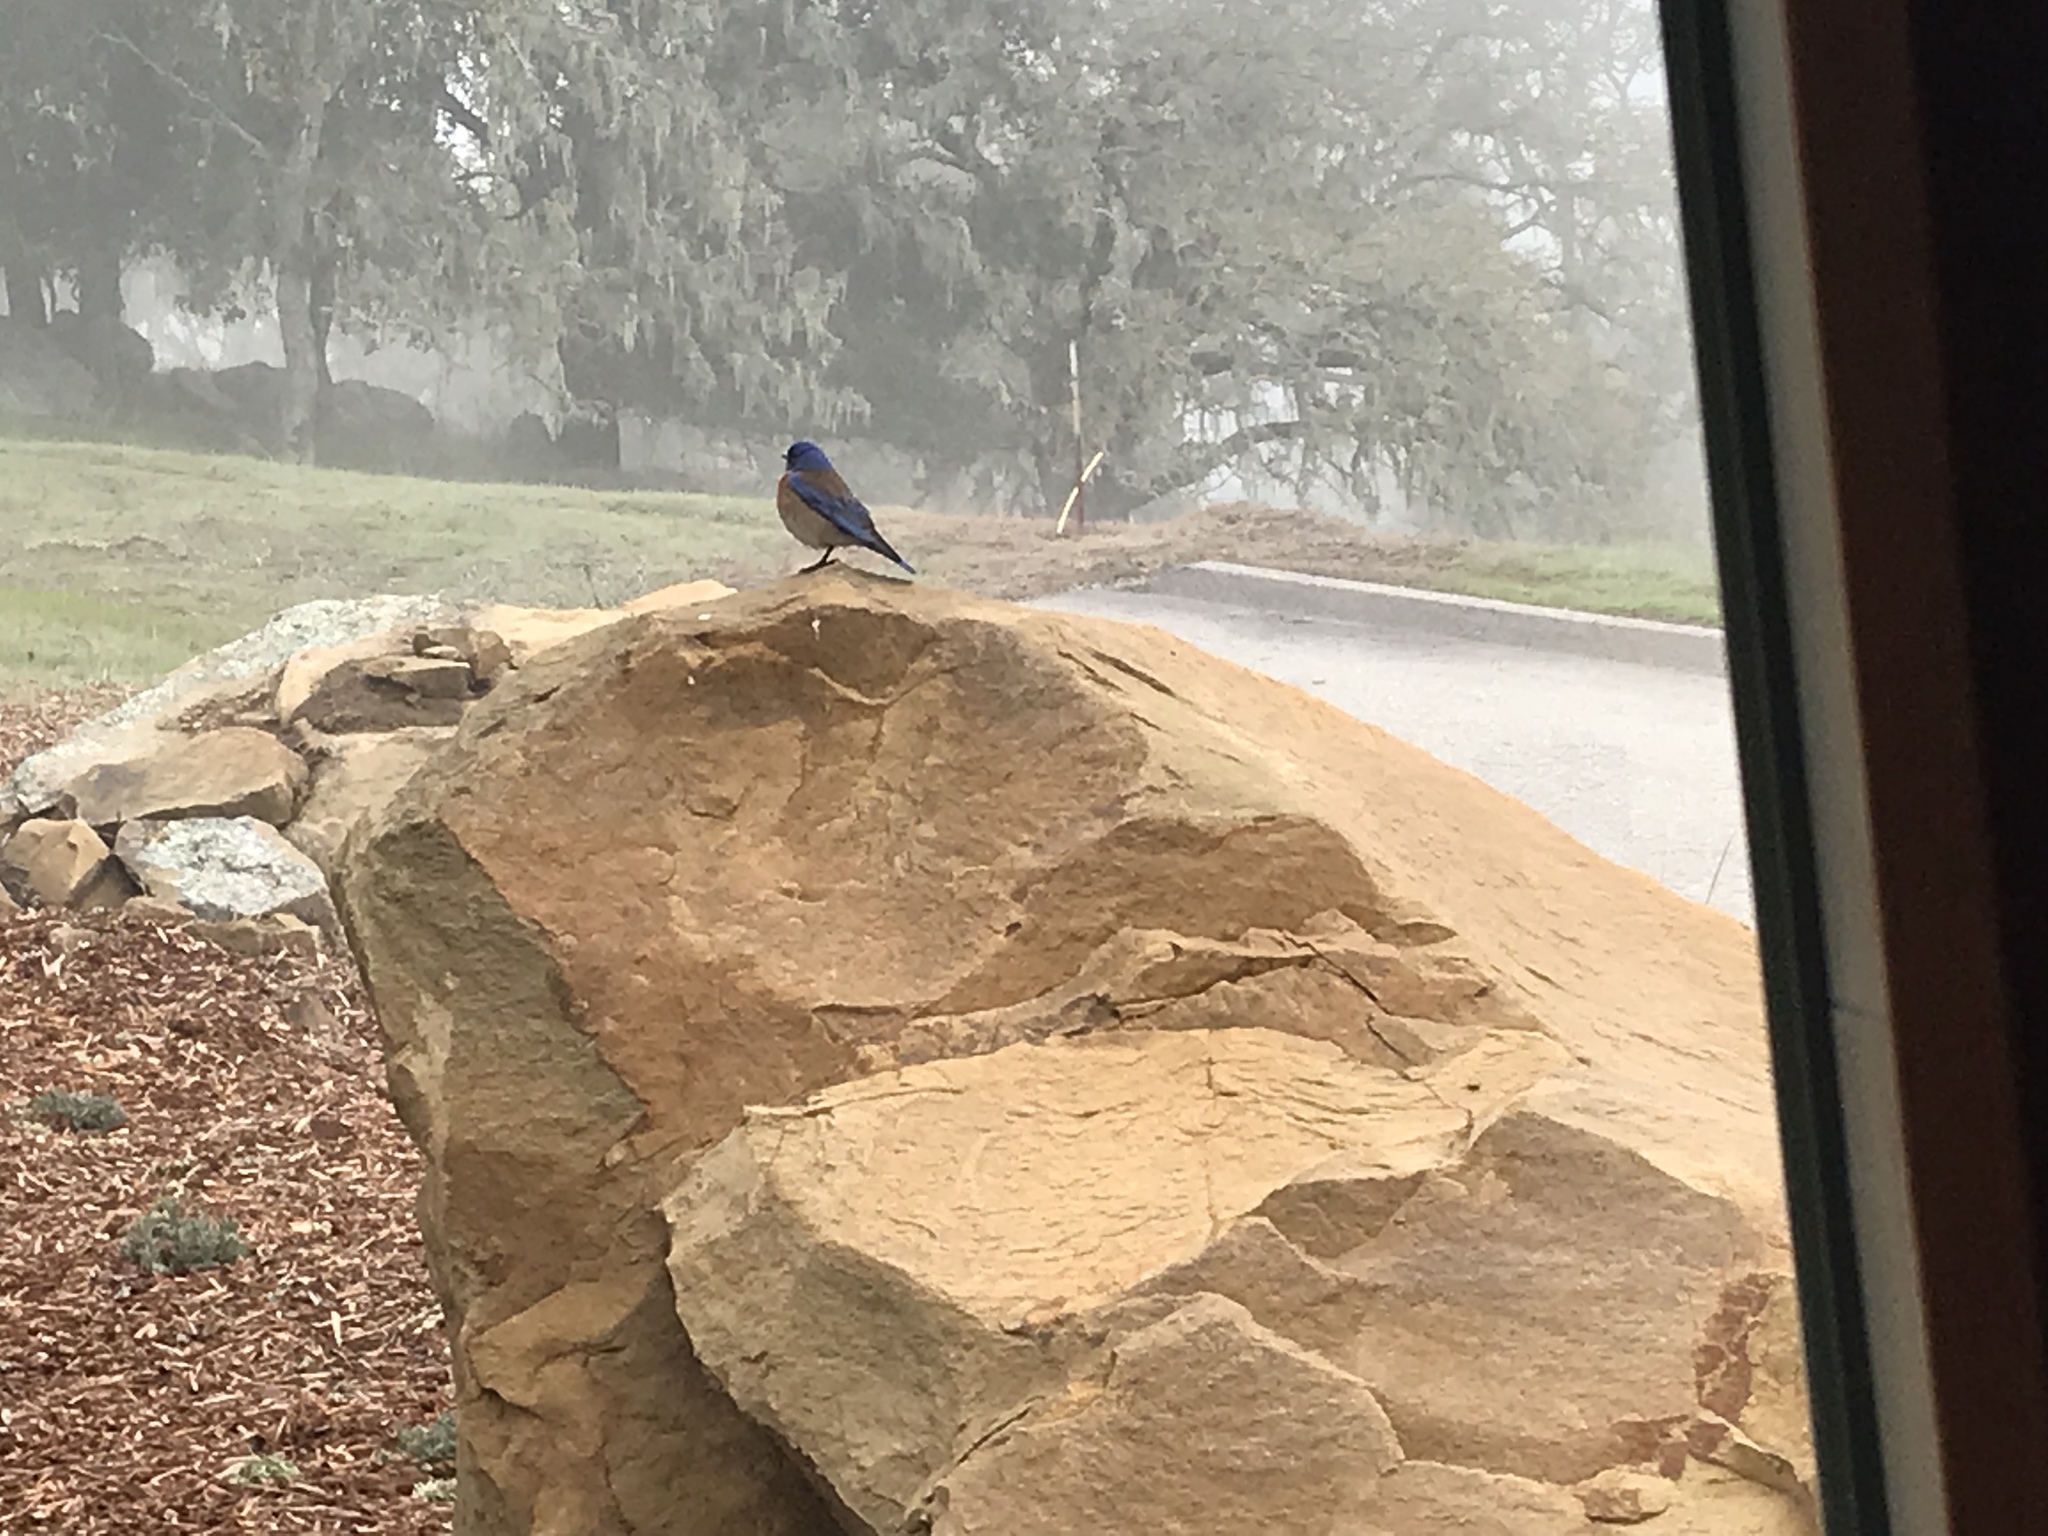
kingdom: Animalia
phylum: Chordata
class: Aves
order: Passeriformes
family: Turdidae
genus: Sialia
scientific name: Sialia mexicana
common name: Western bluebird
